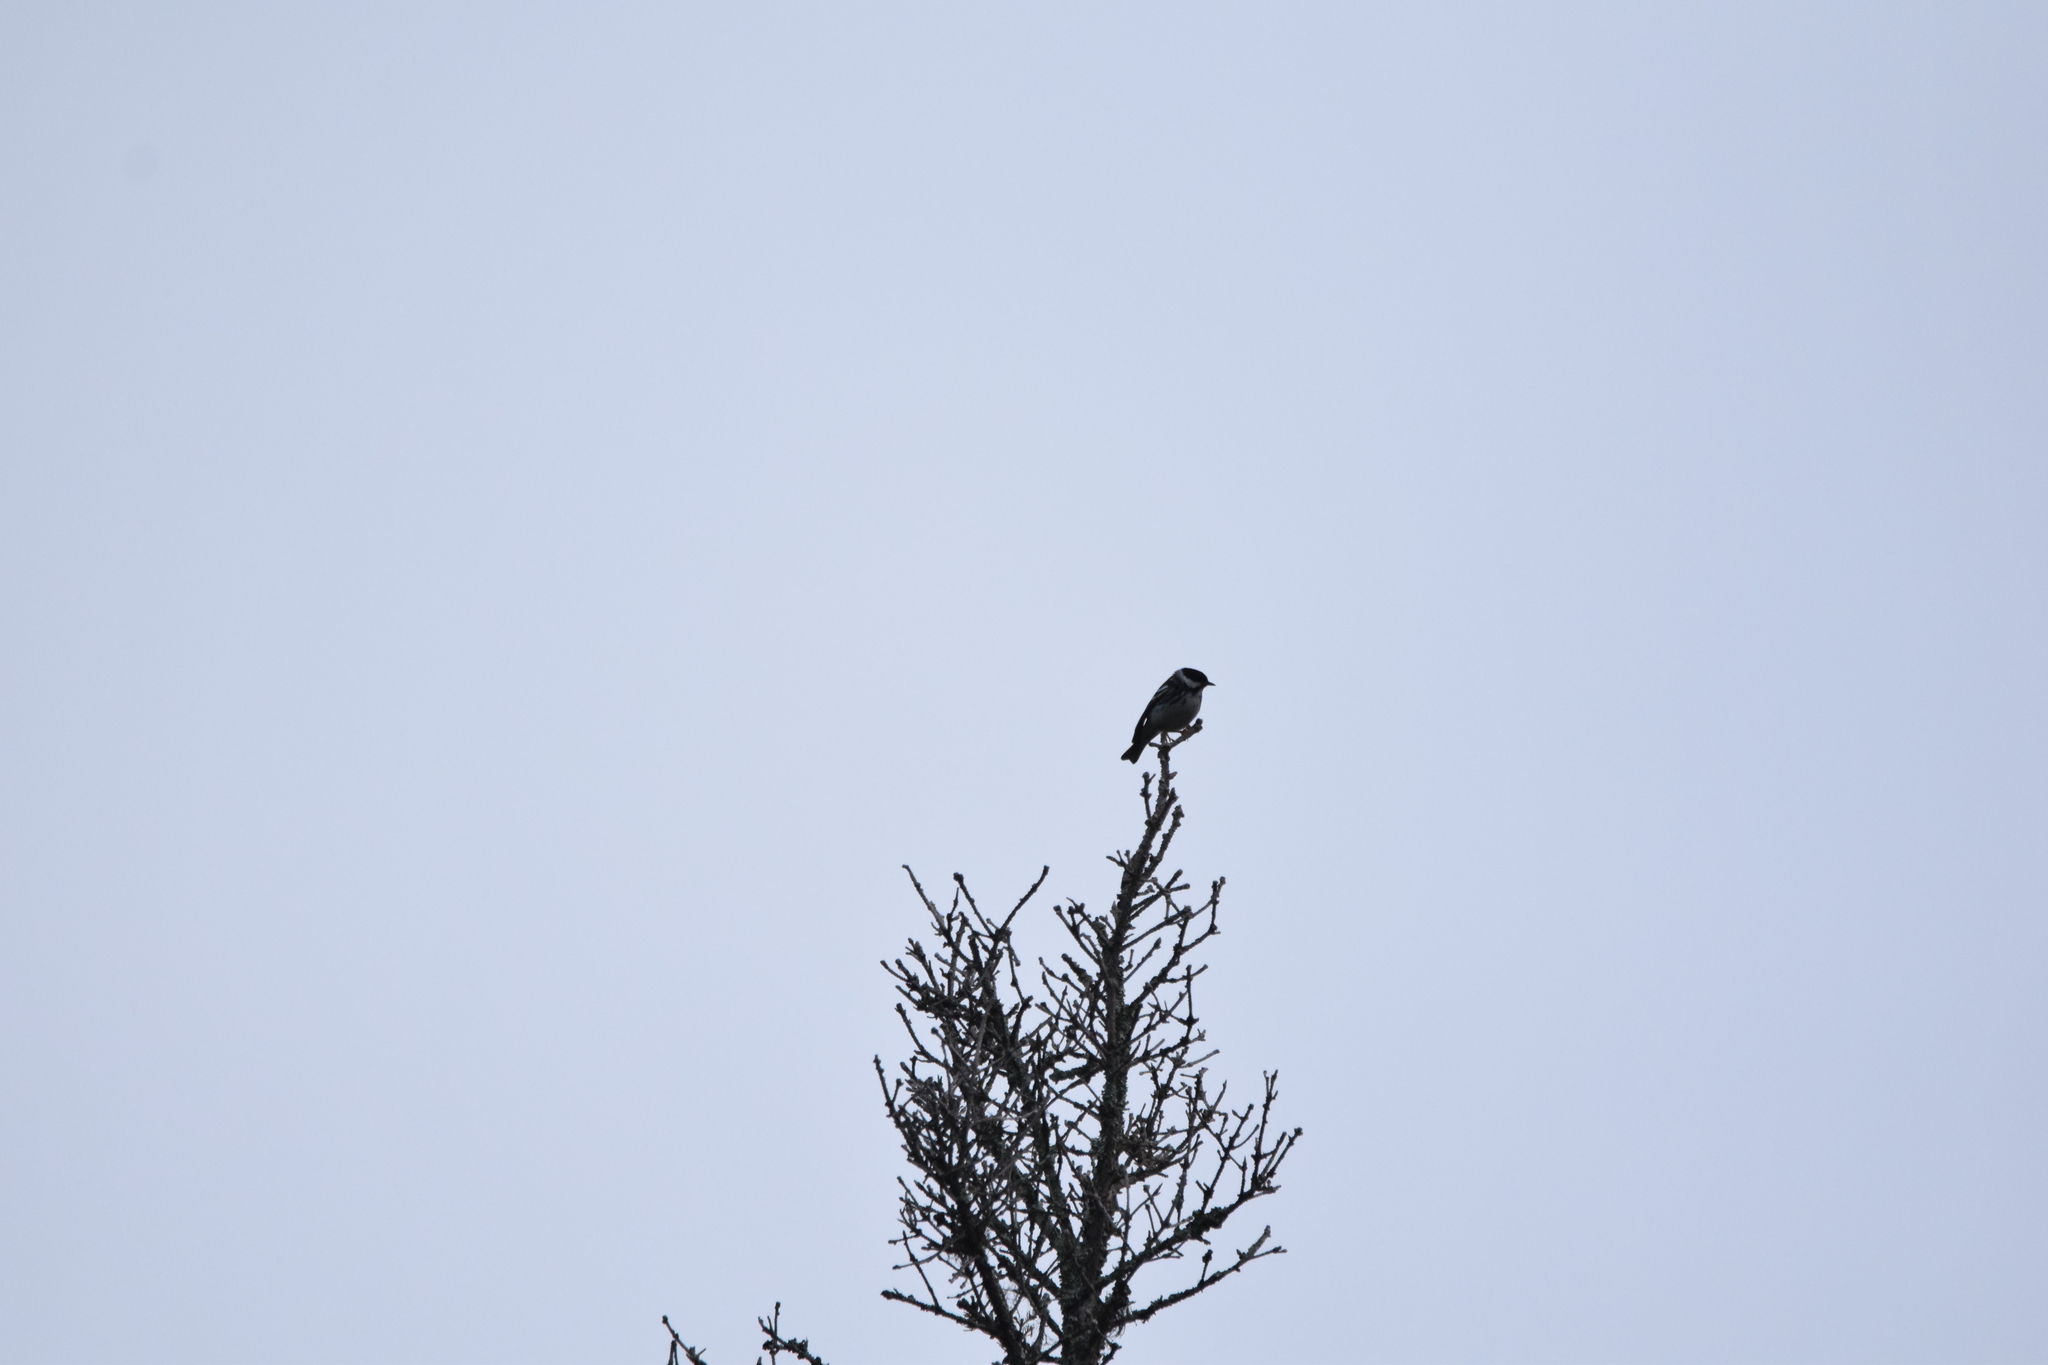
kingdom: Animalia
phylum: Chordata
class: Aves
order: Passeriformes
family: Parulidae
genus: Setophaga
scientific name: Setophaga striata
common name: Blackpoll warbler
